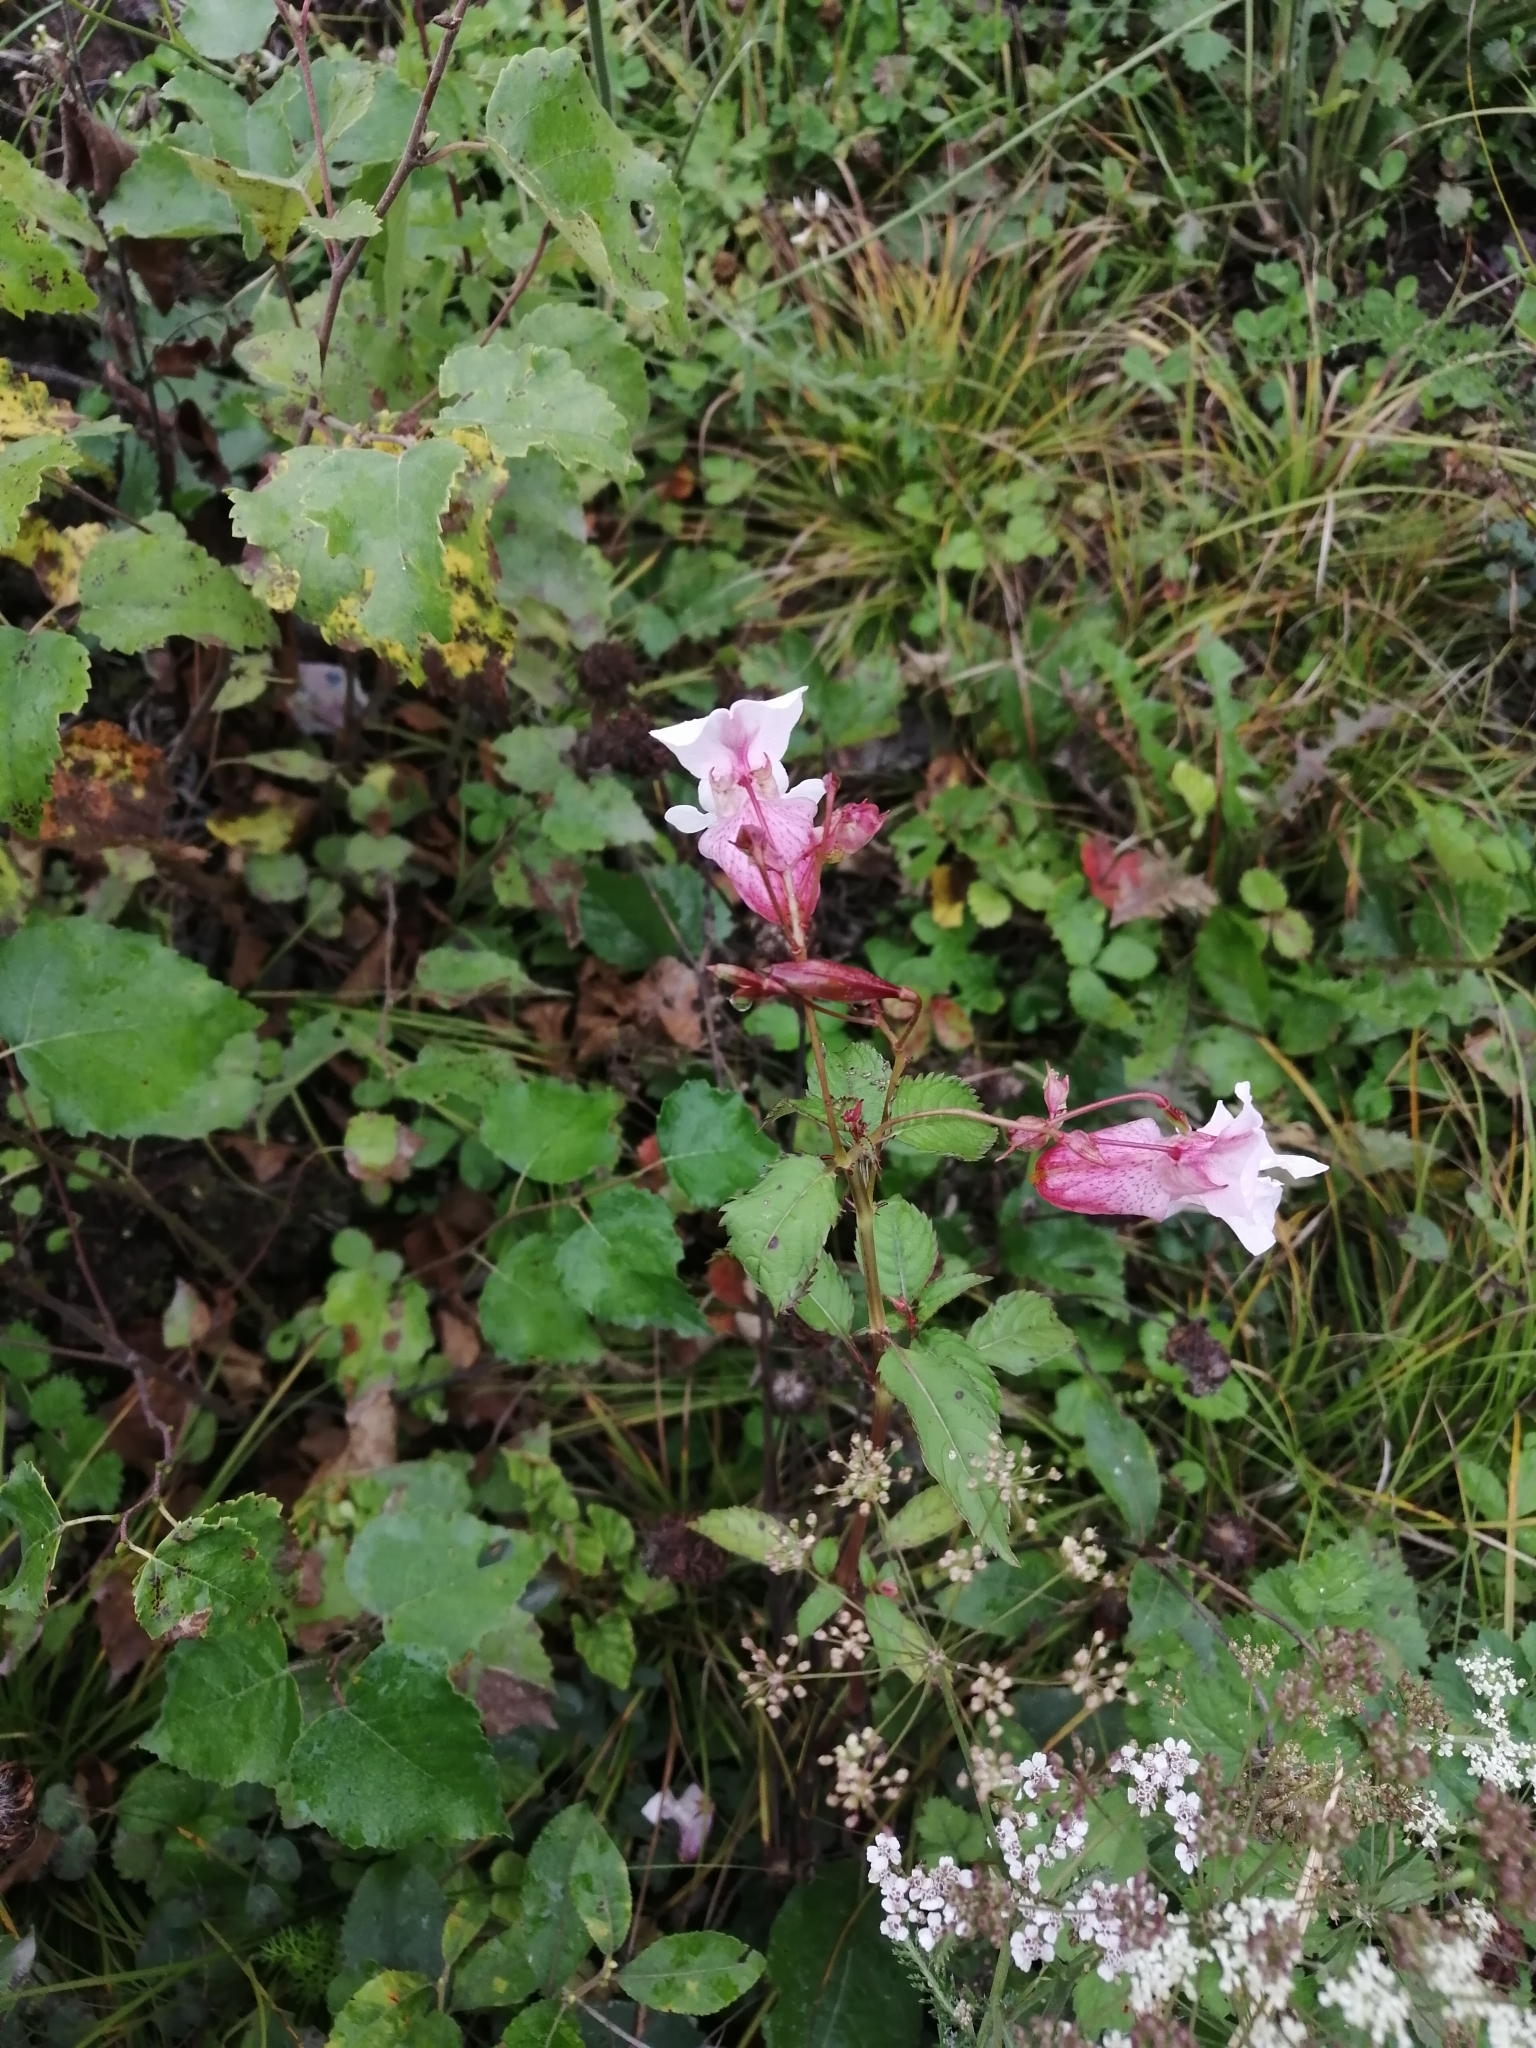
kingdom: Plantae
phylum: Tracheophyta
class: Magnoliopsida
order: Ericales
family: Balsaminaceae
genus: Impatiens
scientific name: Impatiens glandulifera
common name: Himalayan balsam
